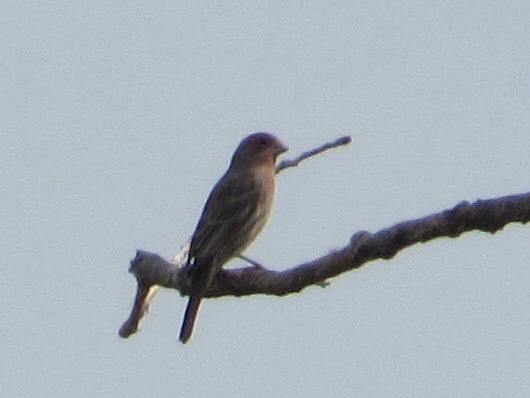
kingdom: Animalia
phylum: Chordata
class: Aves
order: Passeriformes
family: Fringillidae
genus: Haemorhous
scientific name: Haemorhous mexicanus
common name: House finch
